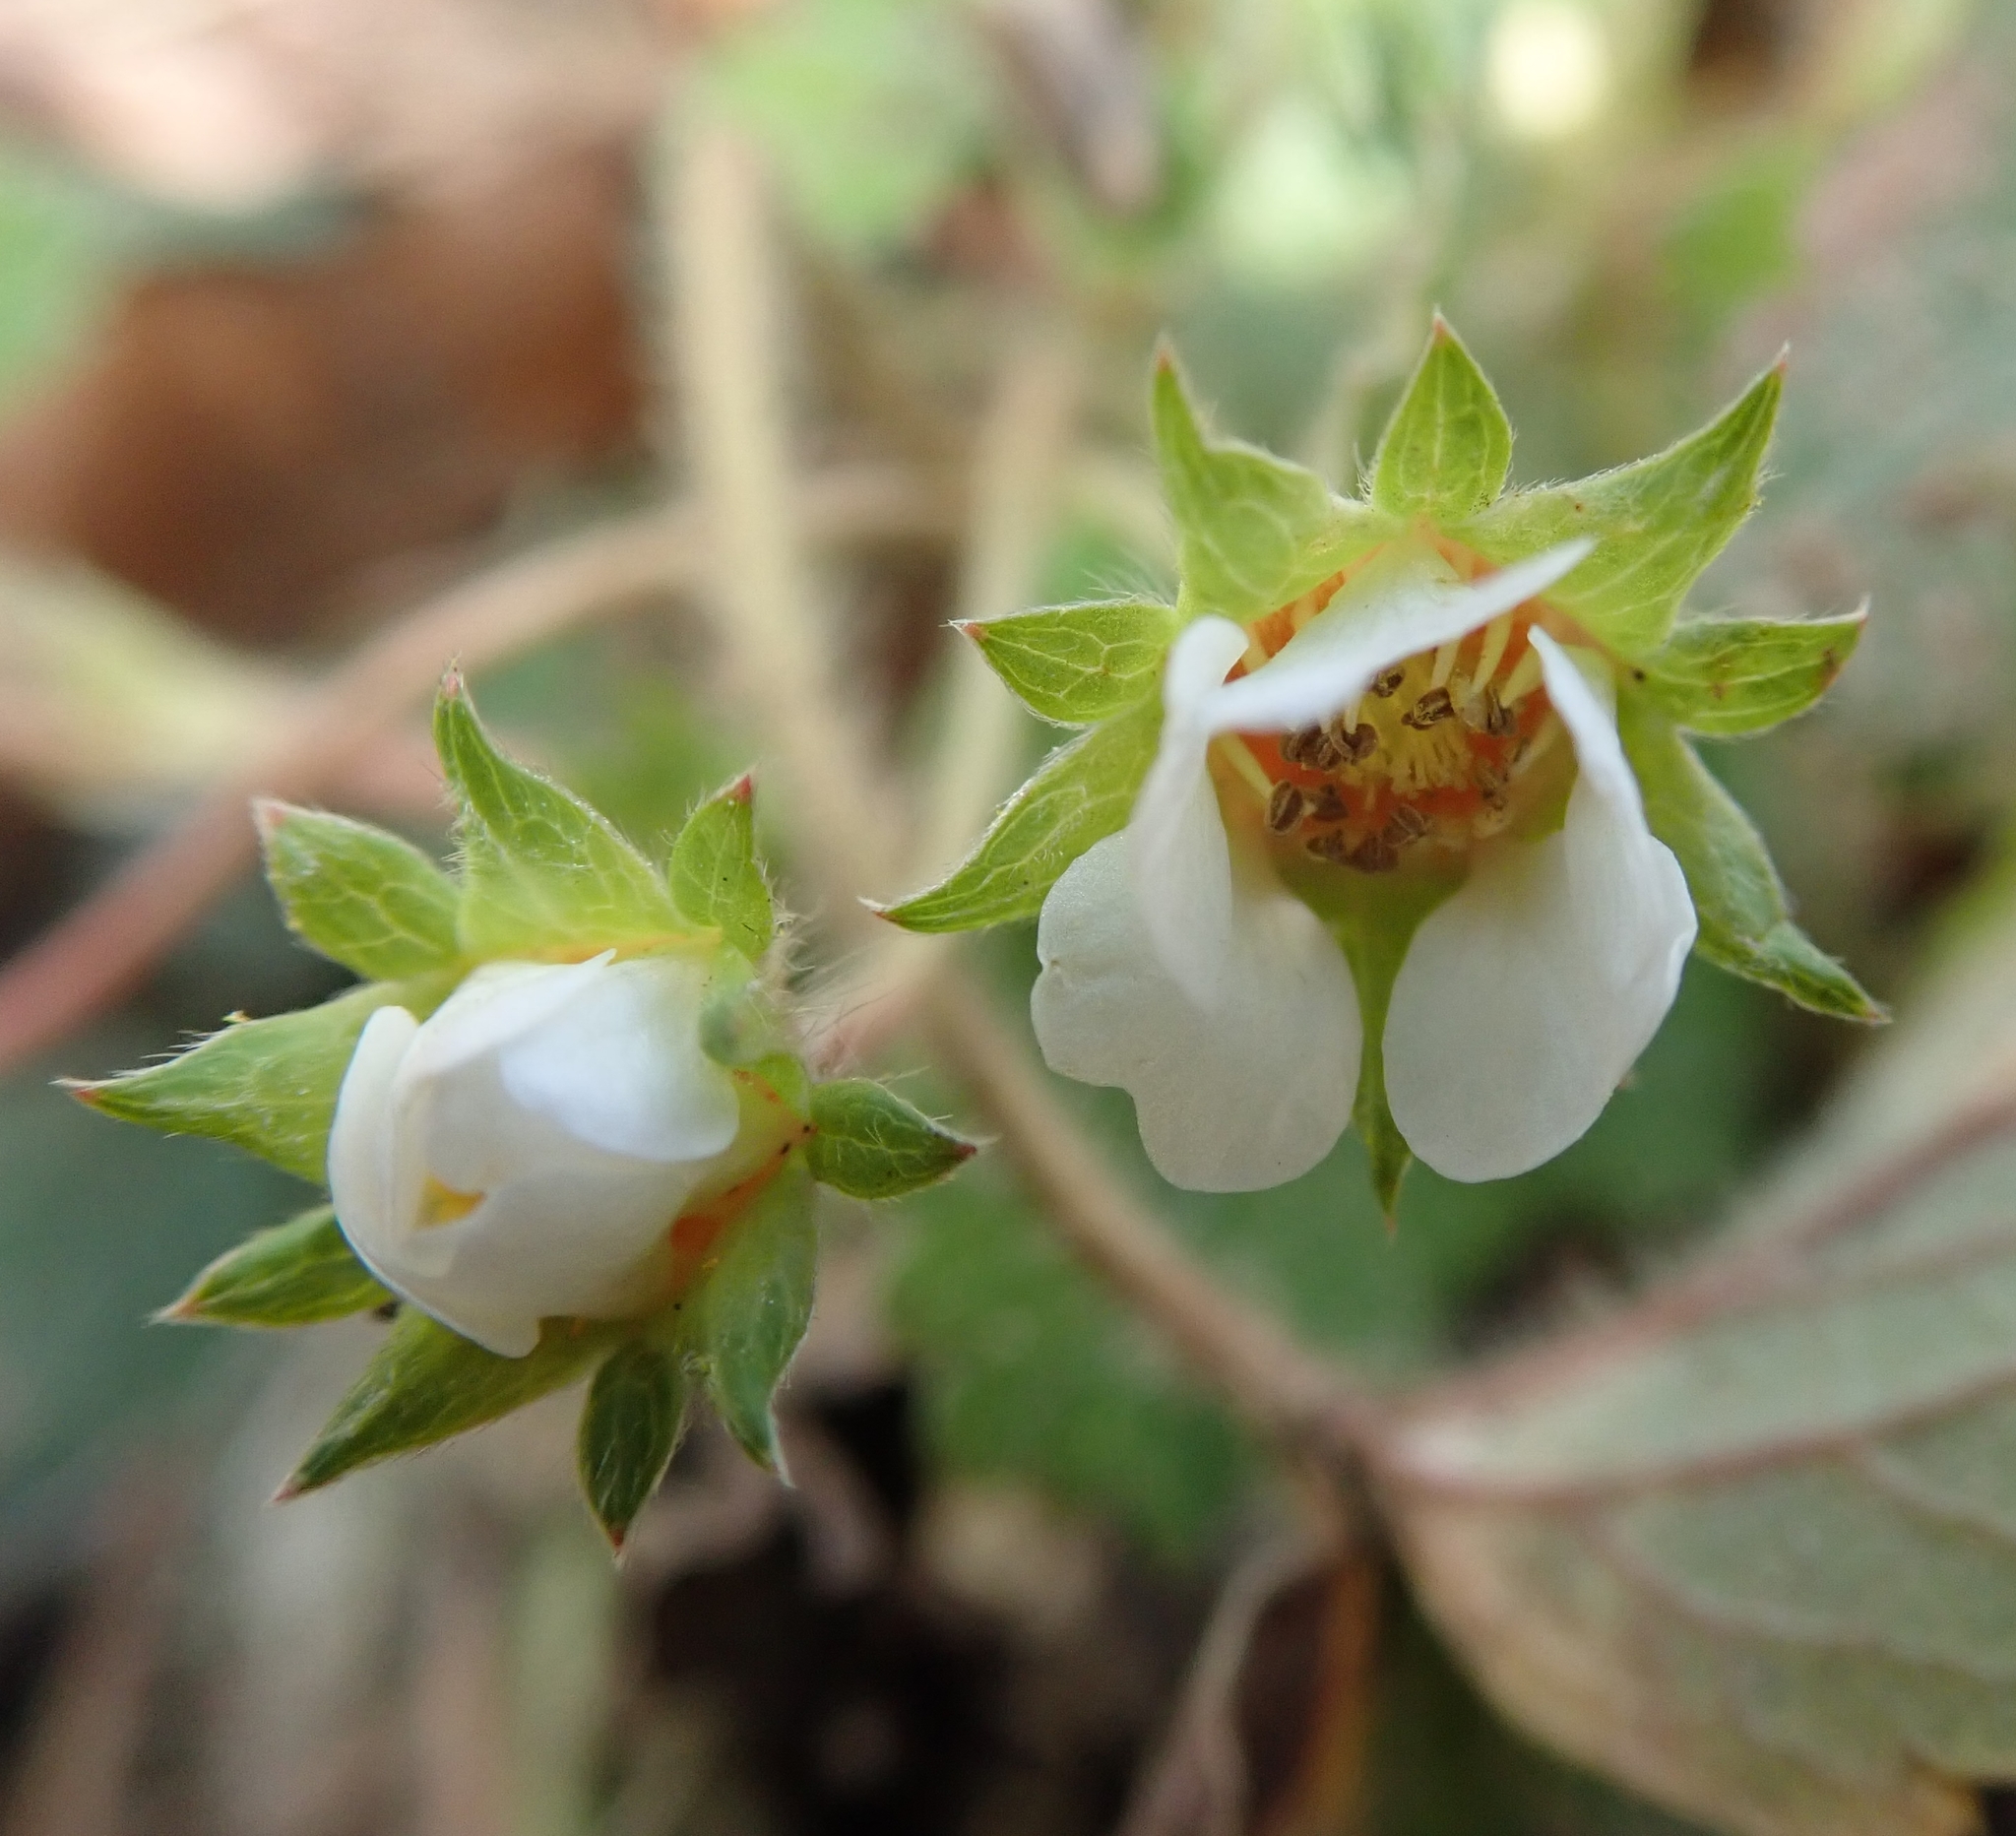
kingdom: Plantae
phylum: Tracheophyta
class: Magnoliopsida
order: Rosales
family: Rosaceae
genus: Potentilla
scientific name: Potentilla sterilis
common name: Barren strawberry
